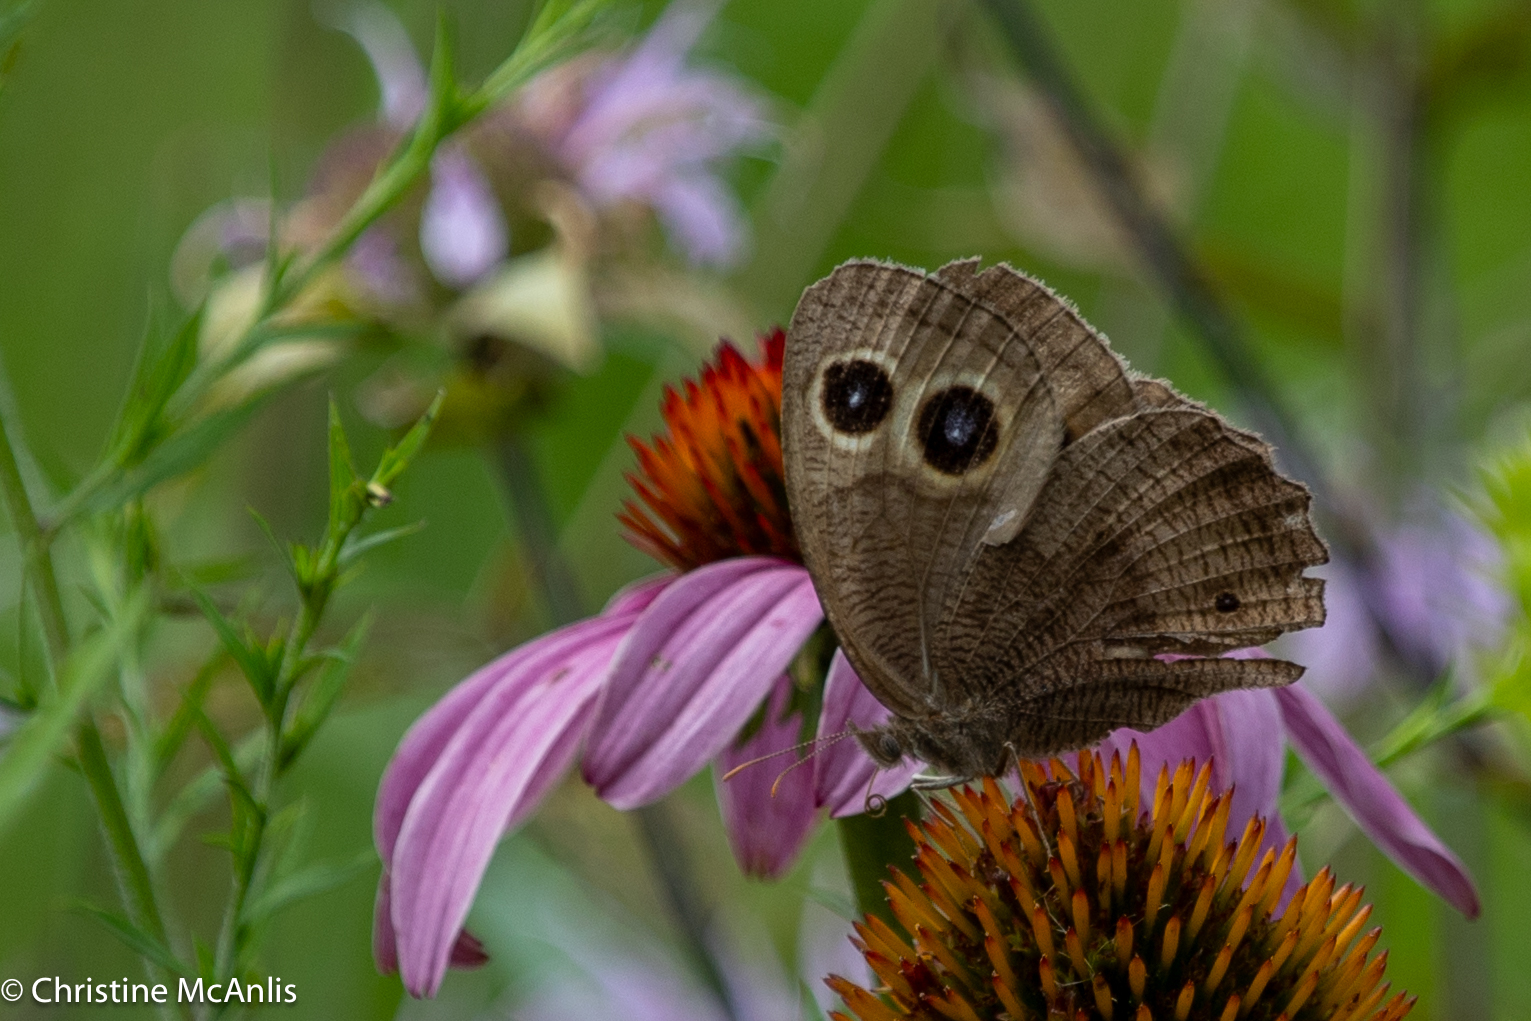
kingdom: Animalia
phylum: Arthropoda
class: Insecta
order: Lepidoptera
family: Nymphalidae
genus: Cercyonis
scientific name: Cercyonis pegala
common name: Common wood-nymph
